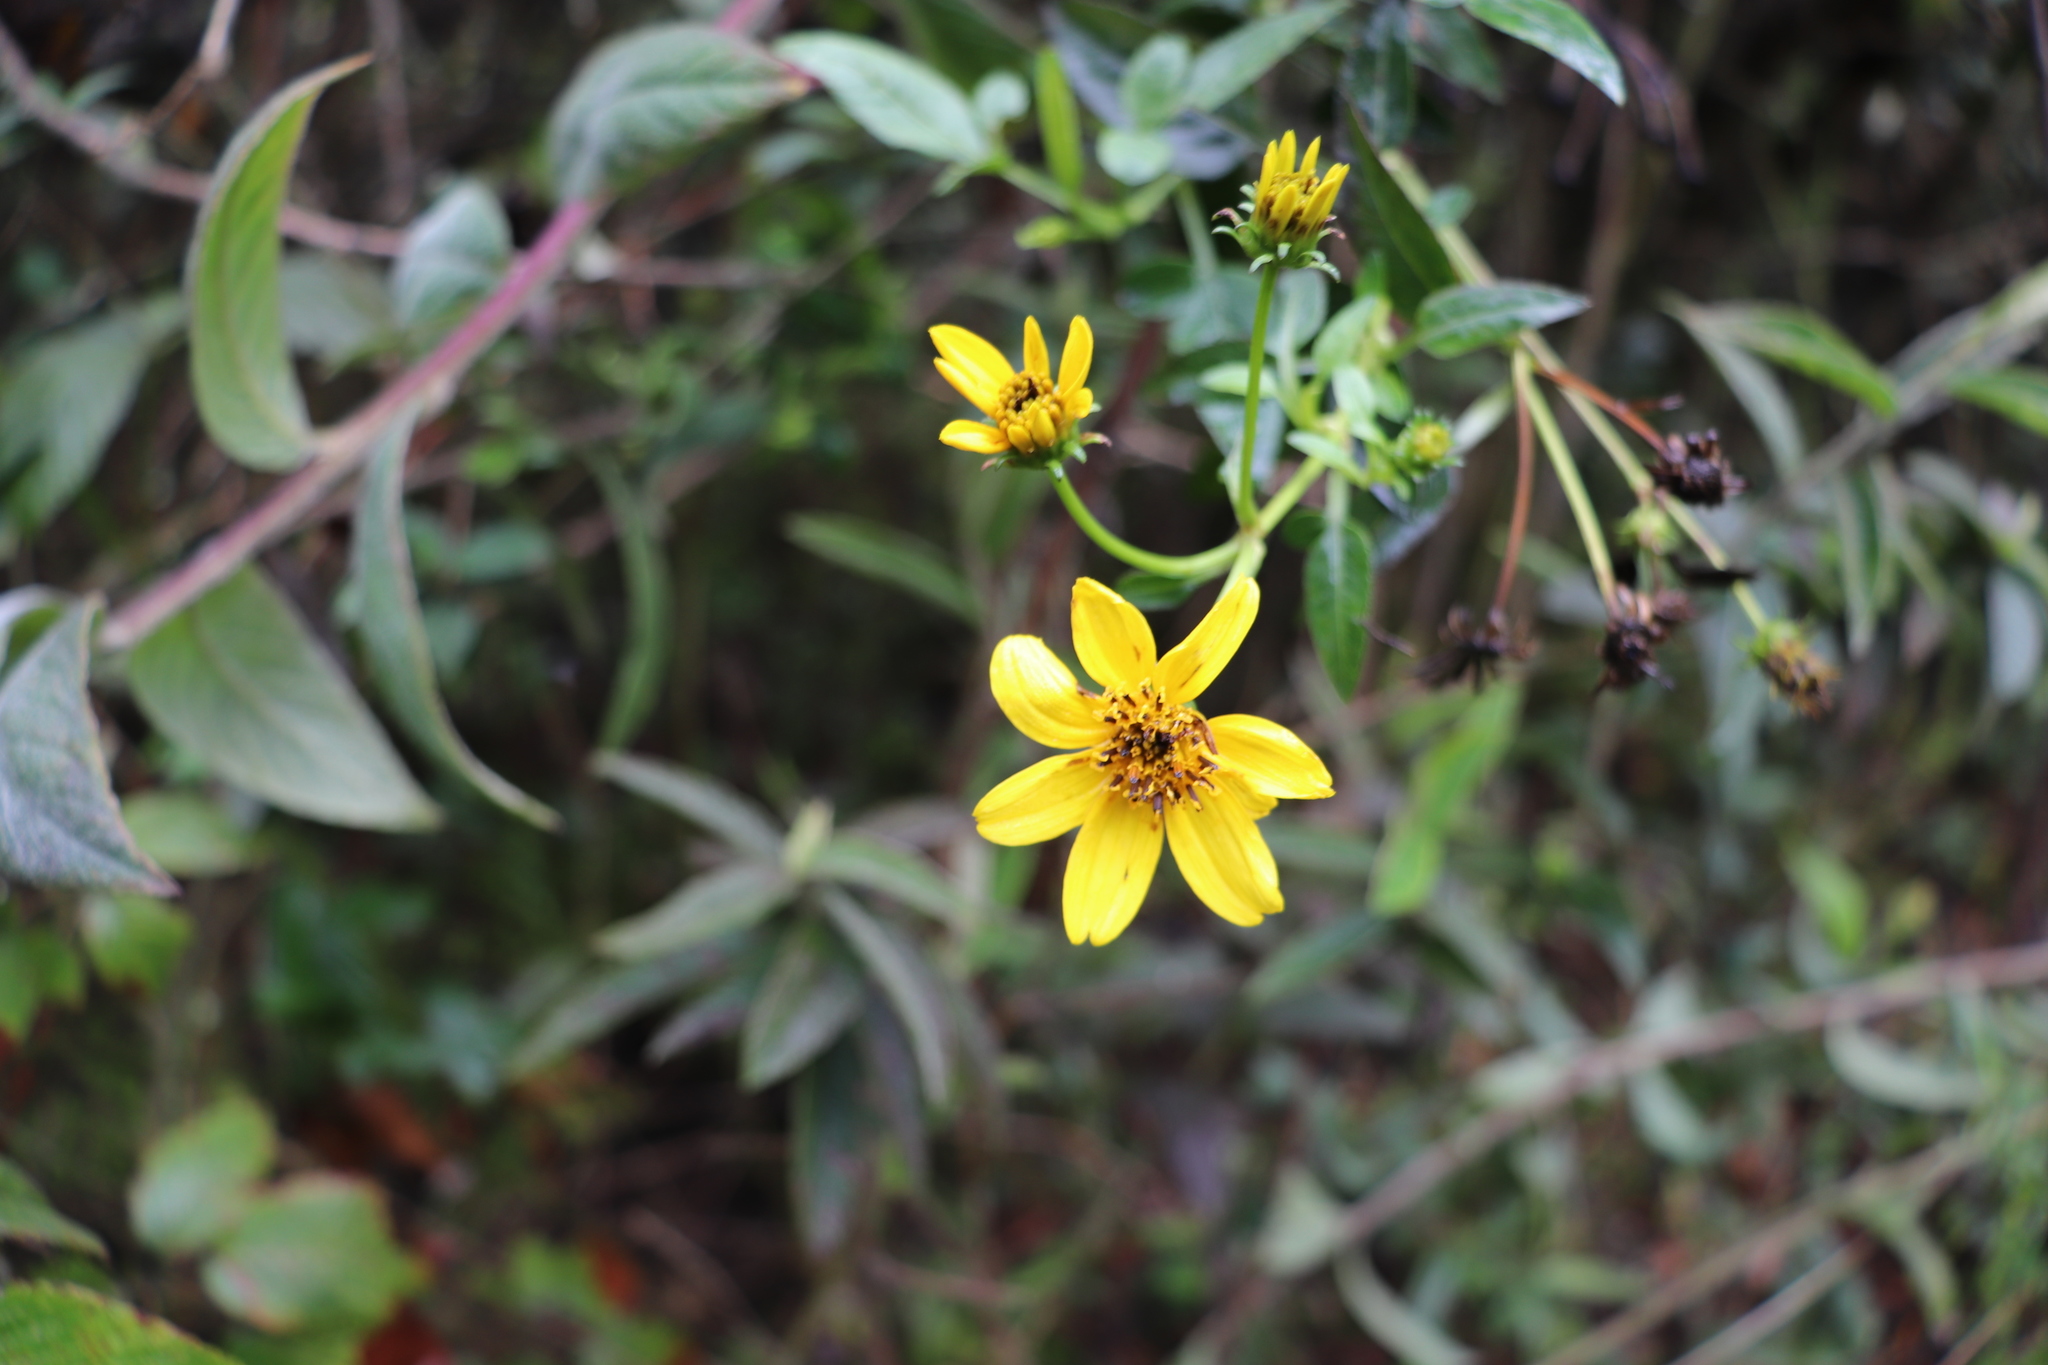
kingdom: Plantae
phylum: Tracheophyta
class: Magnoliopsida
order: Asterales
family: Asteraceae
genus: Bidens
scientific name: Bidens rubifolia
